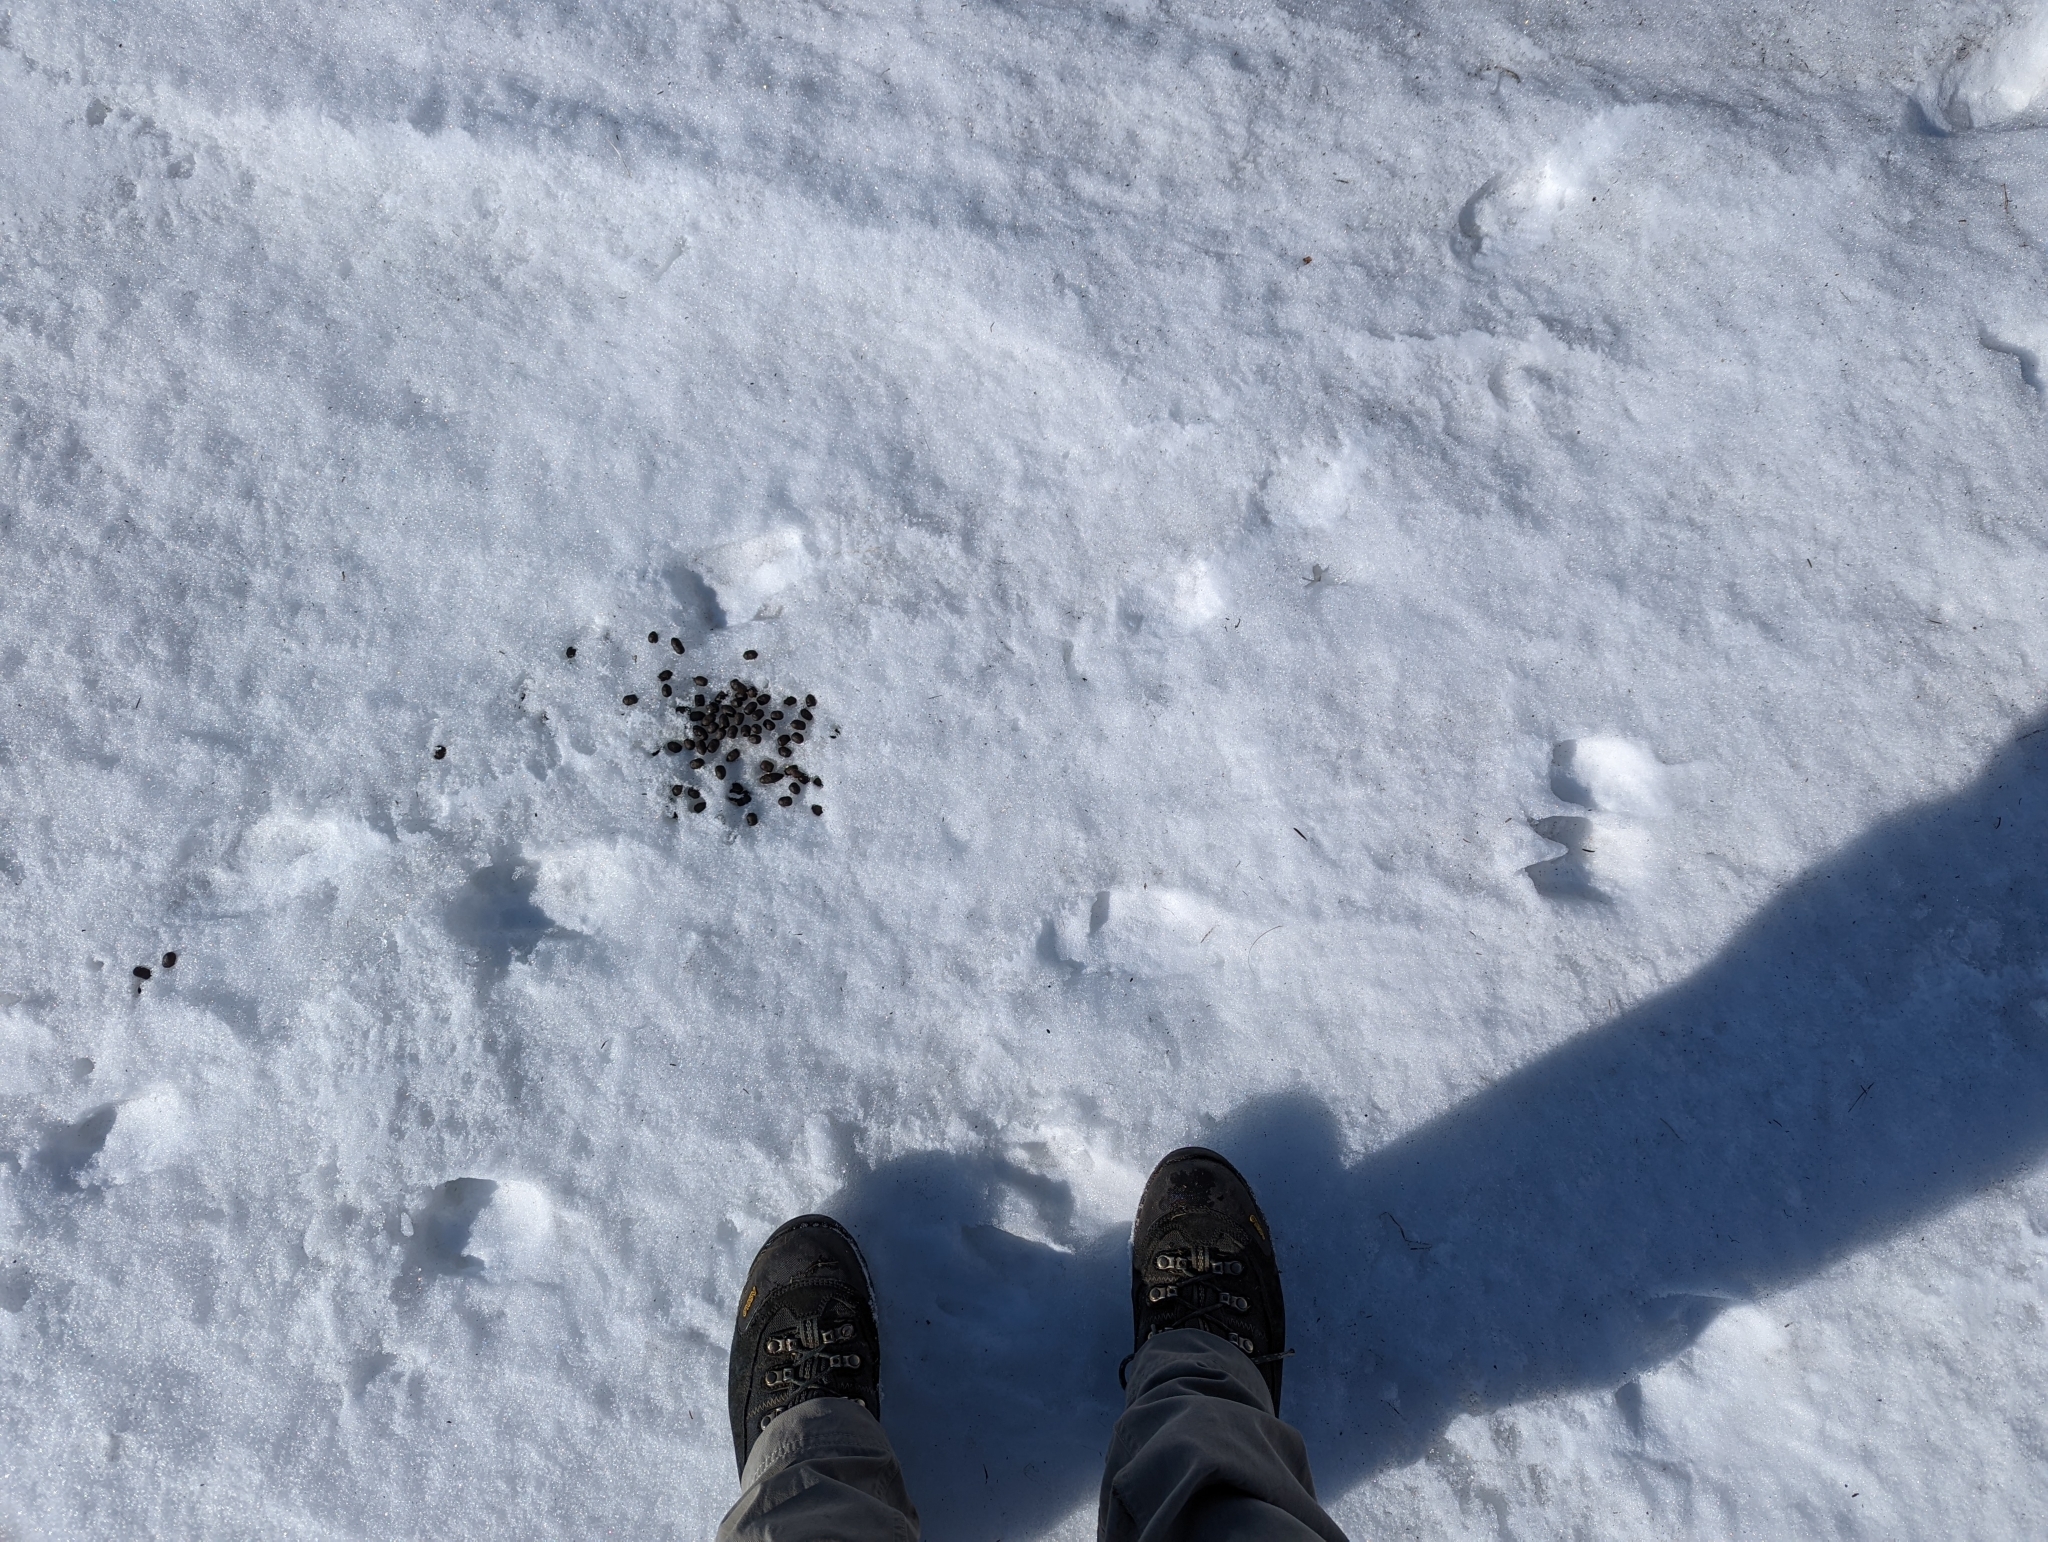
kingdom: Animalia
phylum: Chordata
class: Mammalia
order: Artiodactyla
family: Bovidae
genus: Ovis
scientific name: Ovis dalli
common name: Dall's sheep
